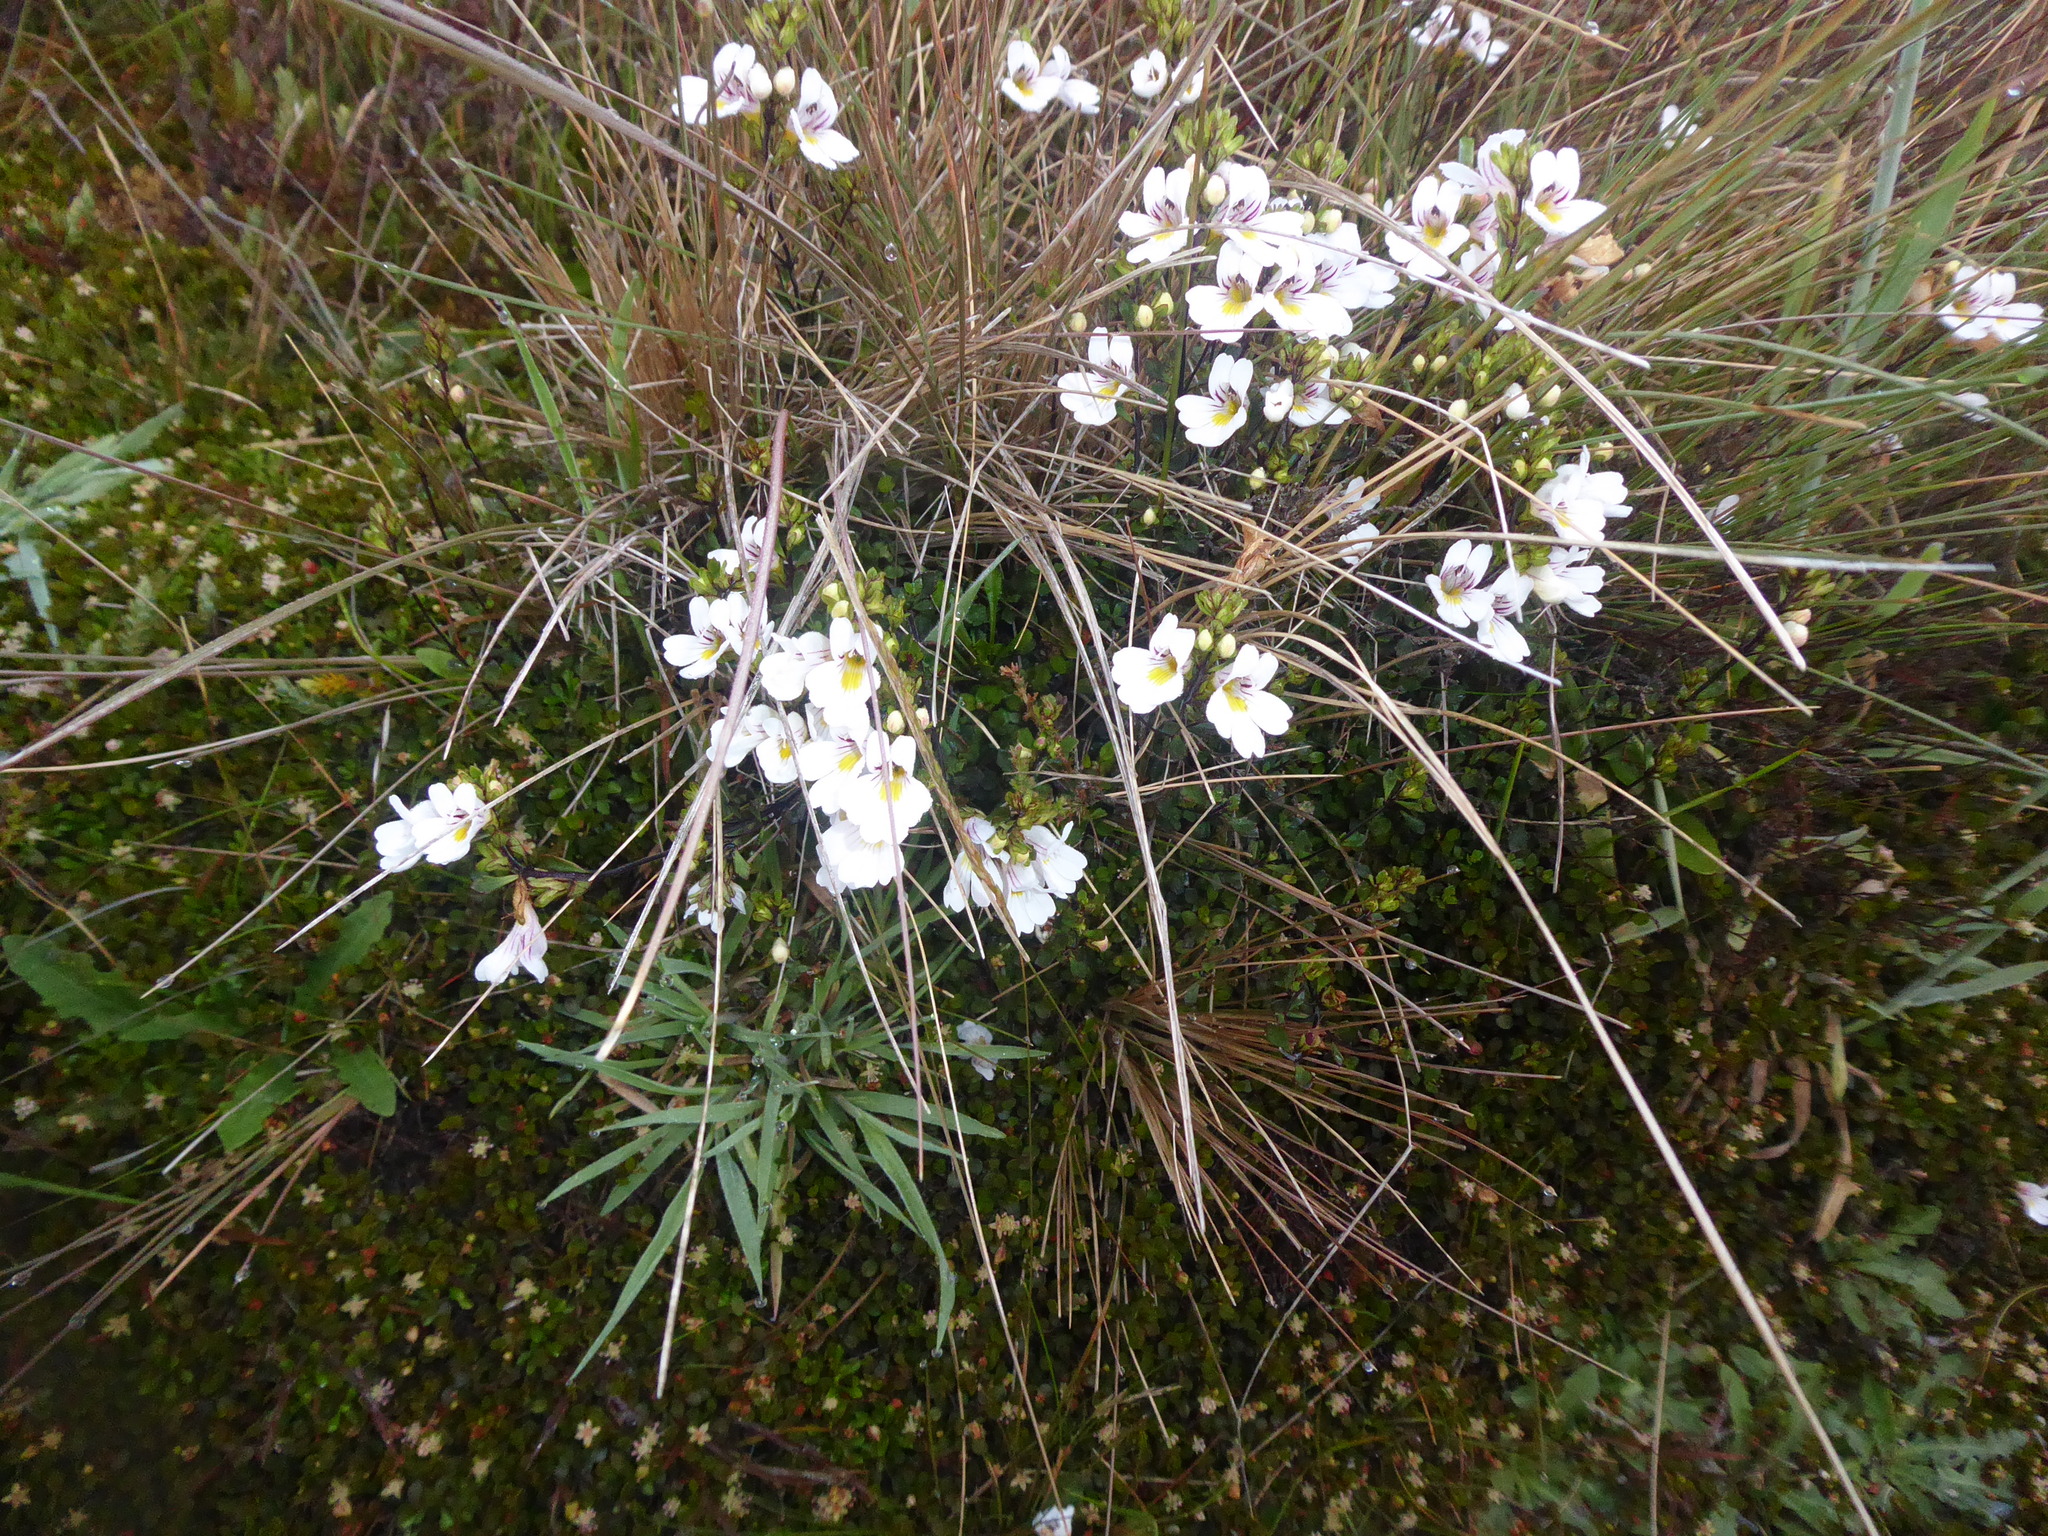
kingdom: Plantae
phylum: Tracheophyta
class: Magnoliopsida
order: Lamiales
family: Orobanchaceae
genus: Euphrasia
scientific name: Euphrasia cuneata
